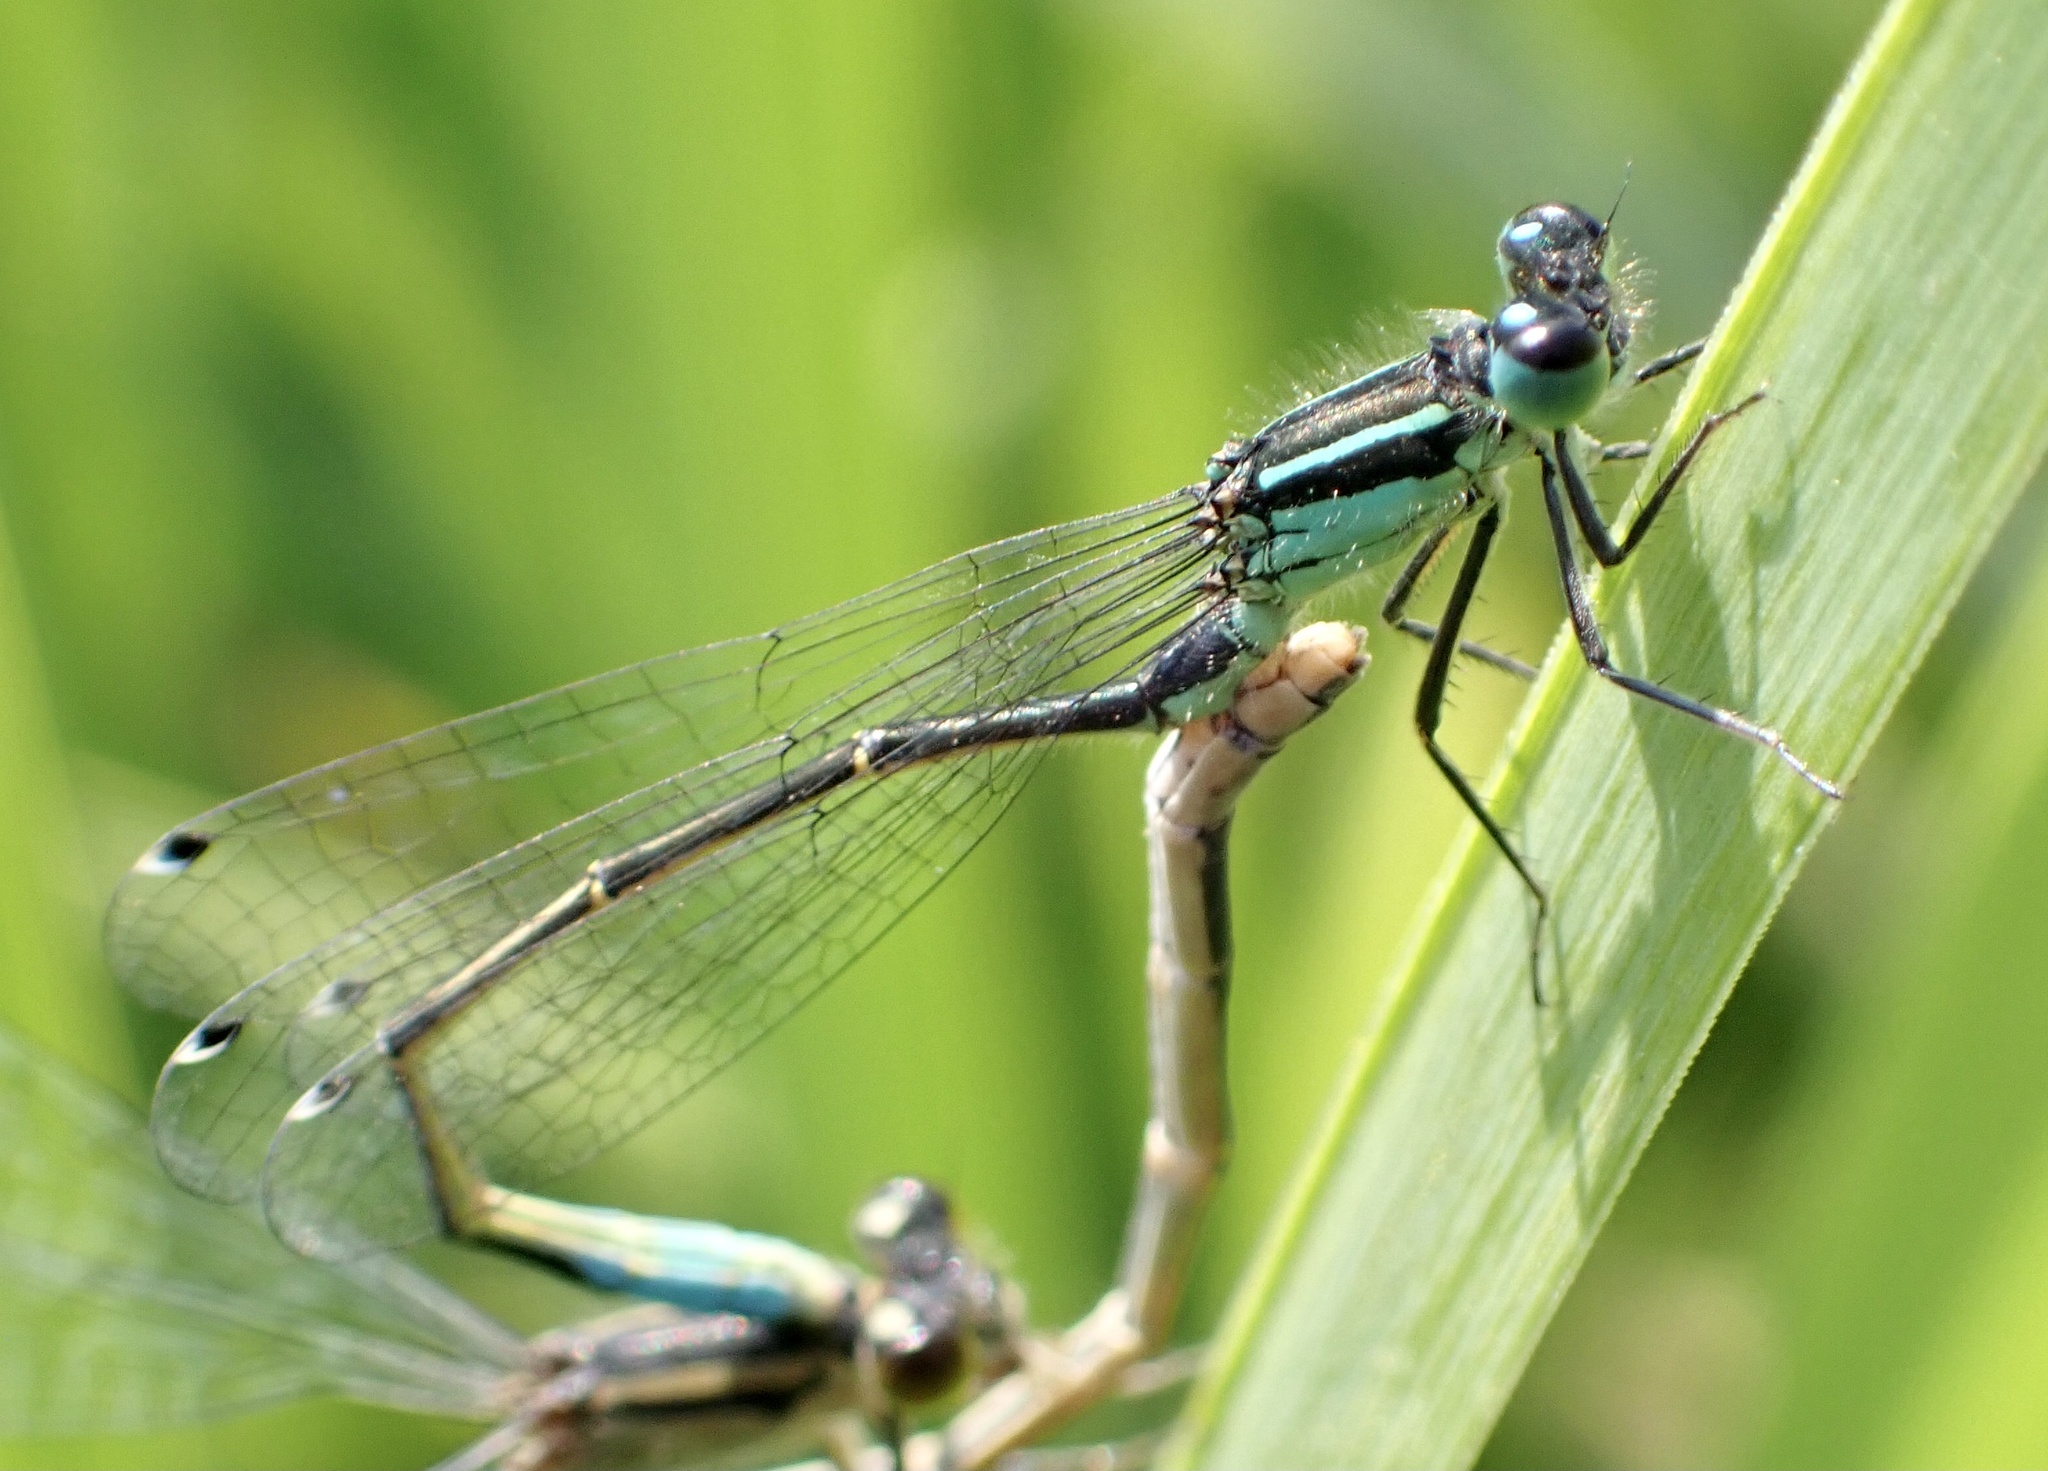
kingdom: Animalia
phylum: Arthropoda
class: Insecta
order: Odonata
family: Coenagrionidae
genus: Ischnura
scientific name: Ischnura elegans
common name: Blue-tailed damselfly
